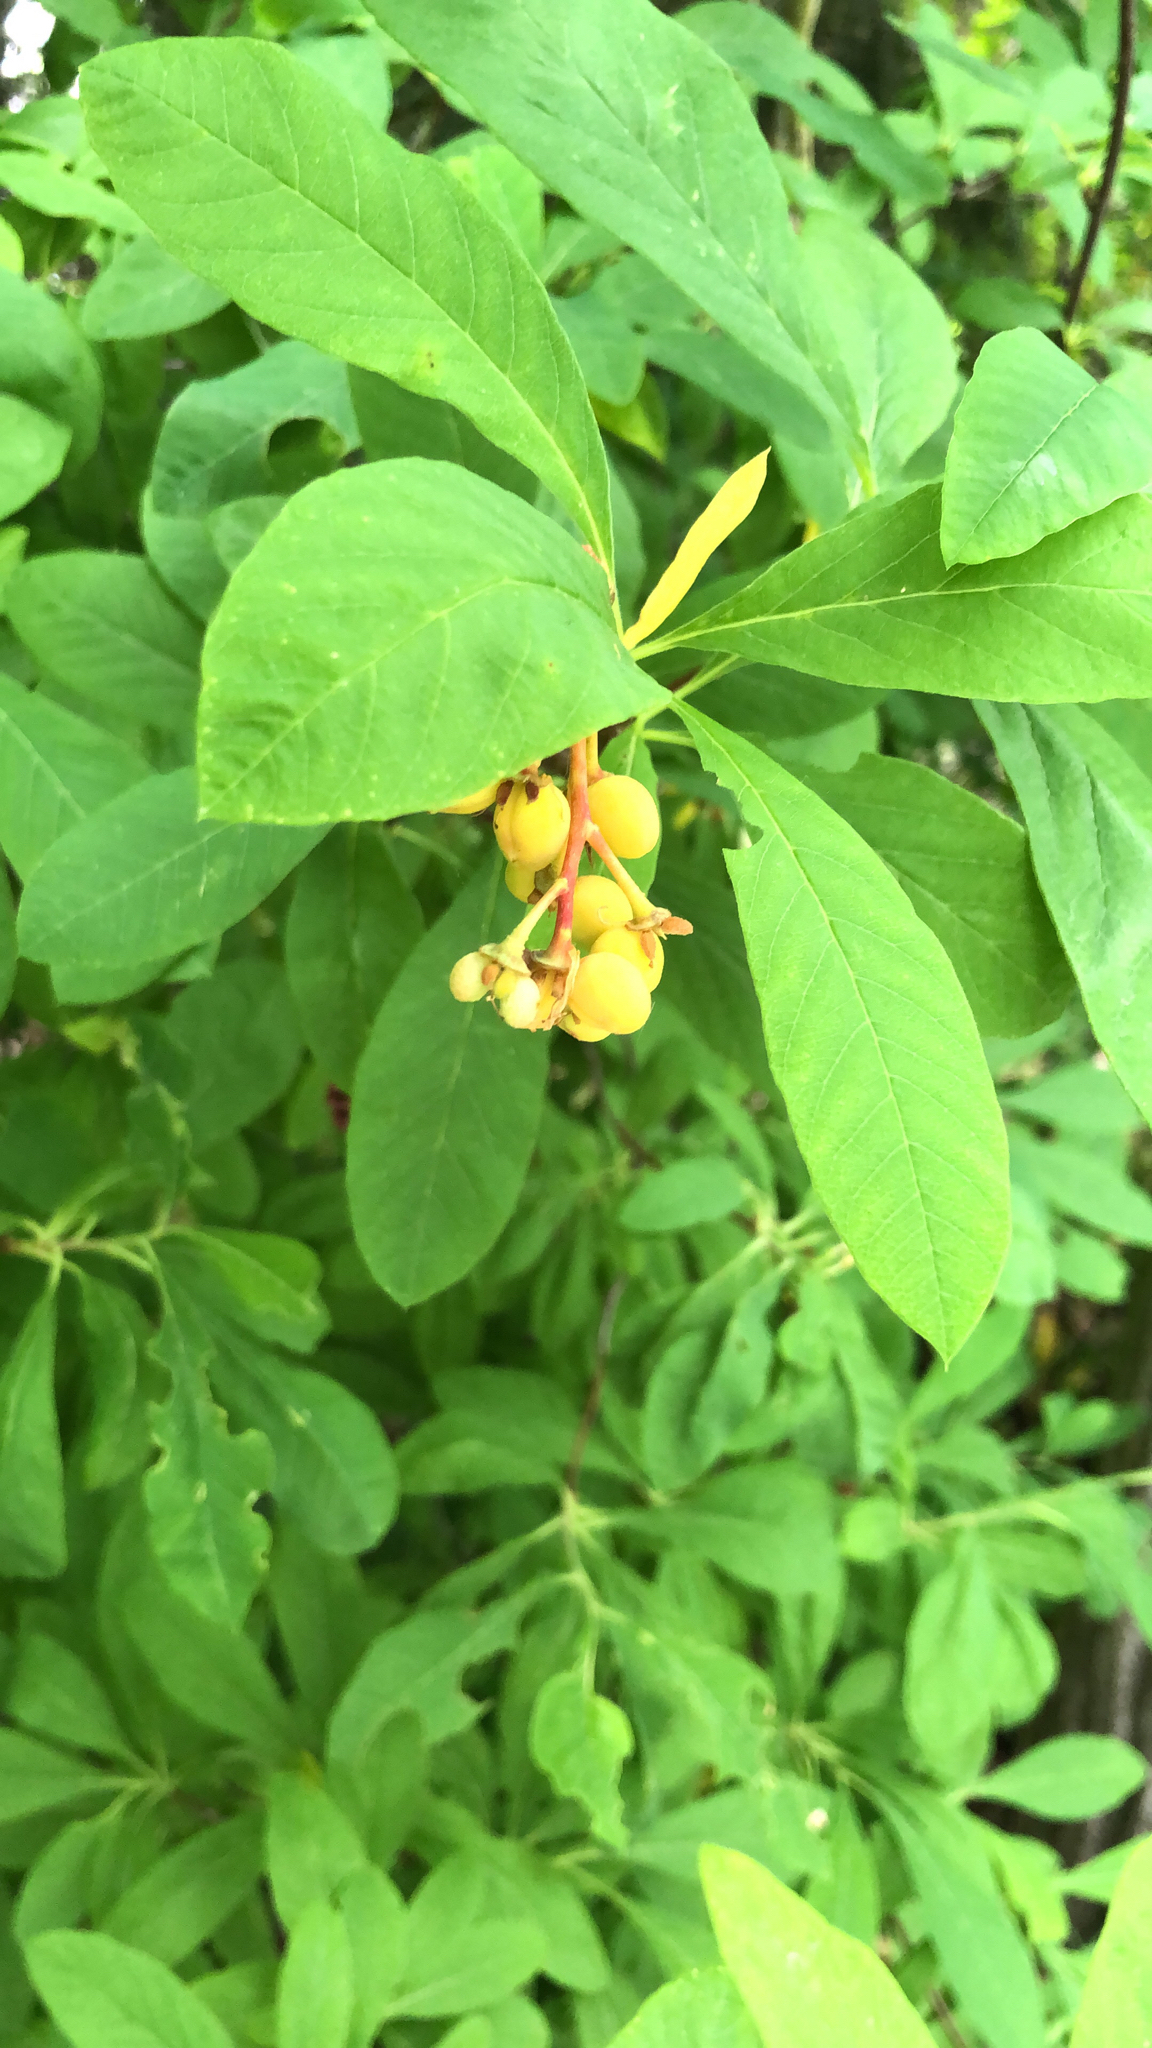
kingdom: Plantae
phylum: Tracheophyta
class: Magnoliopsida
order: Rosales
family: Rosaceae
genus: Oemleria
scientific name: Oemleria cerasiformis
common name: Osoberry
